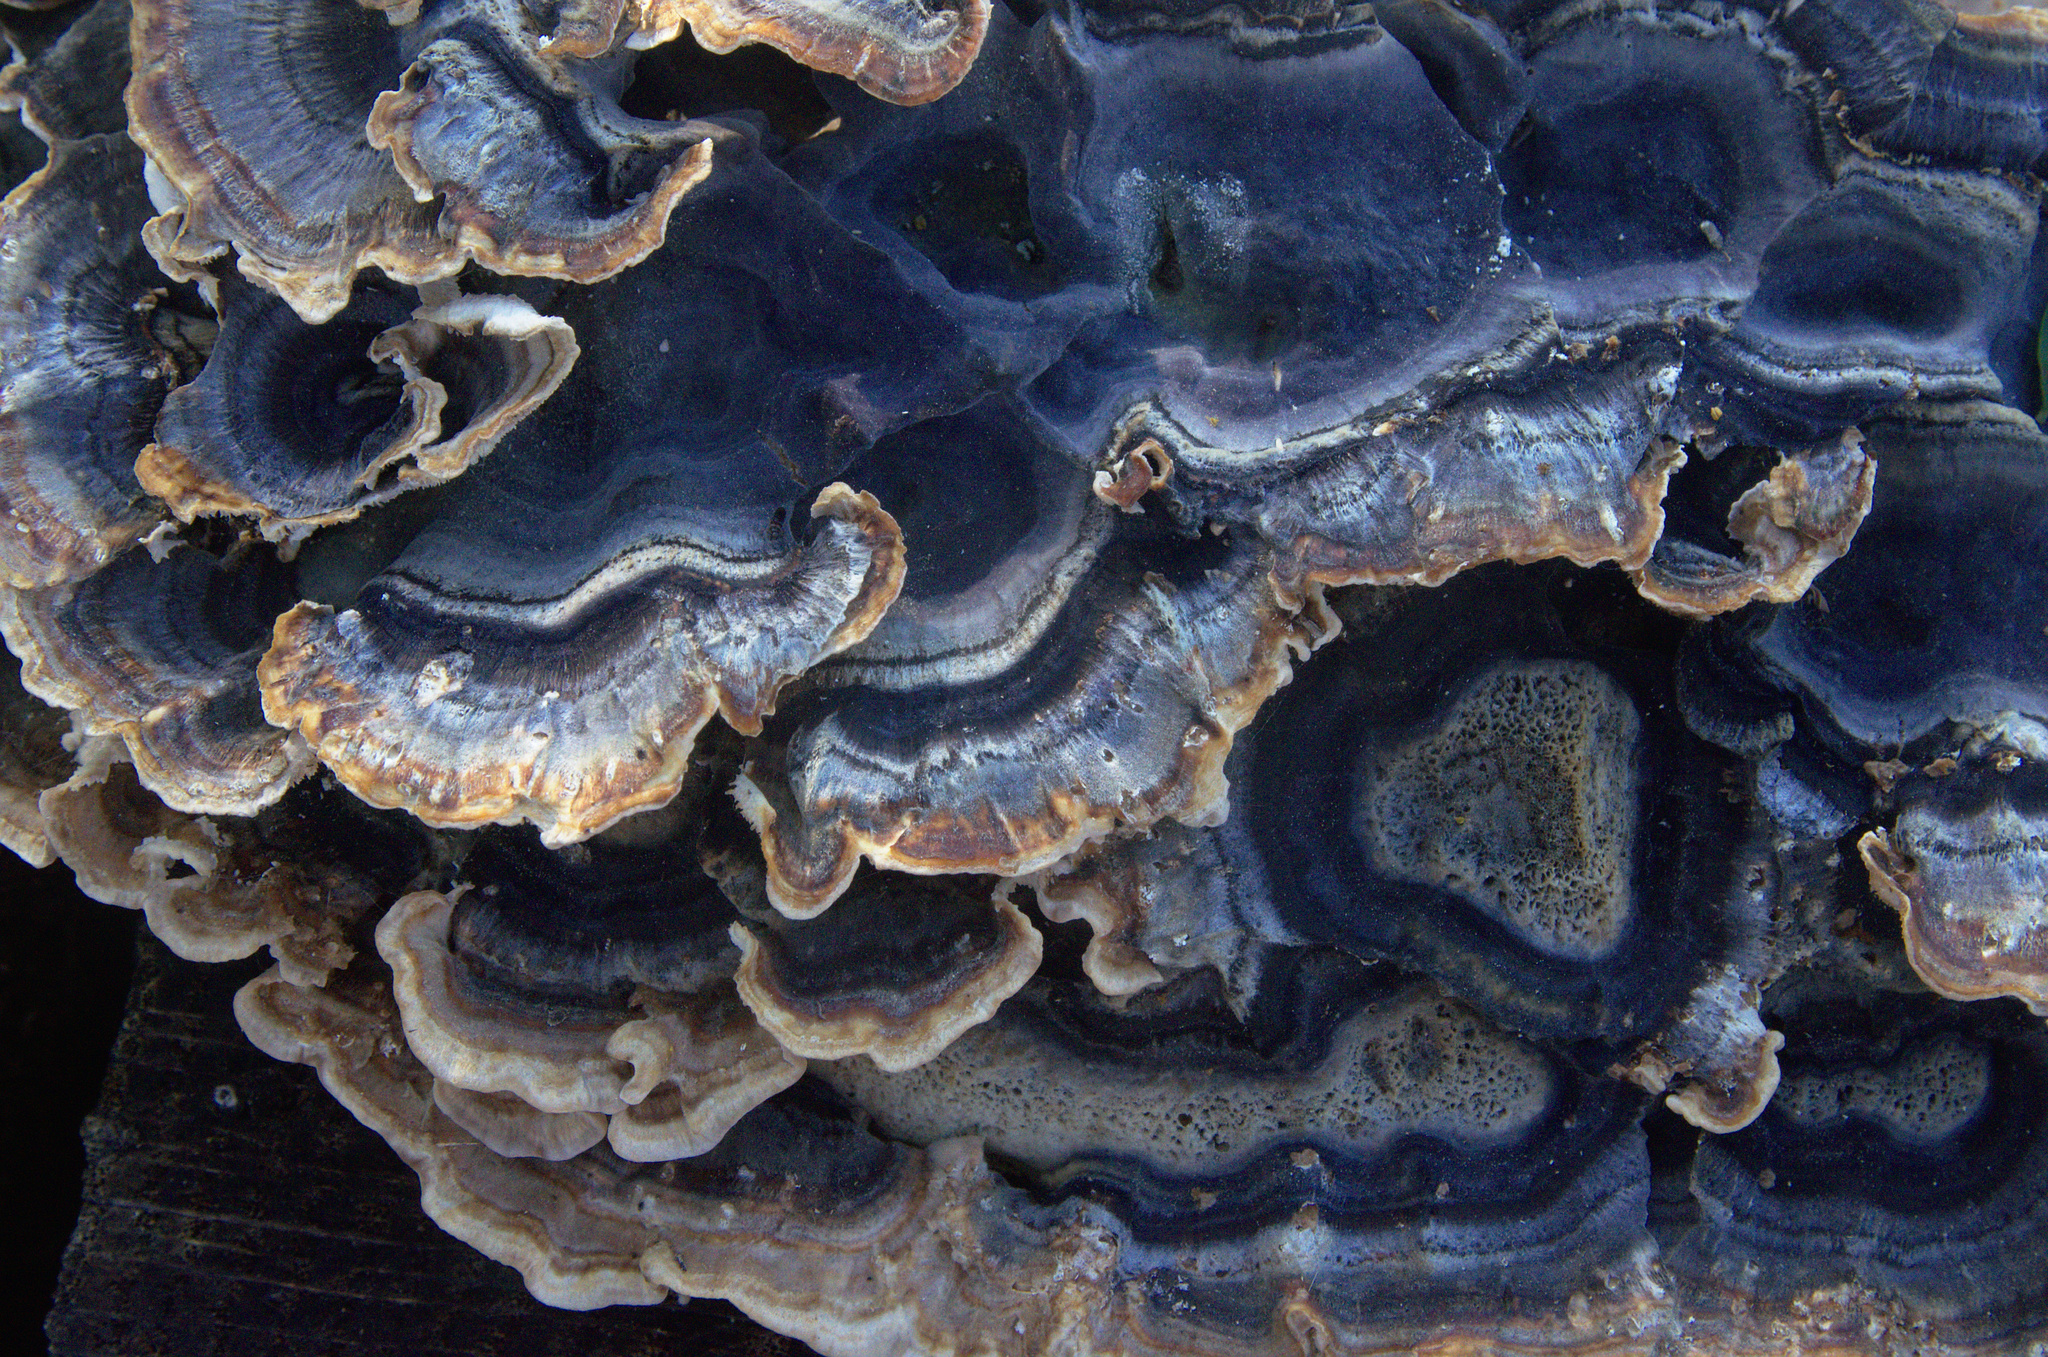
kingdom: Fungi
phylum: Basidiomycota
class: Agaricomycetes
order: Polyporales
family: Polyporaceae
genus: Trametes
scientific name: Trametes versicolor
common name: Turkeytail
